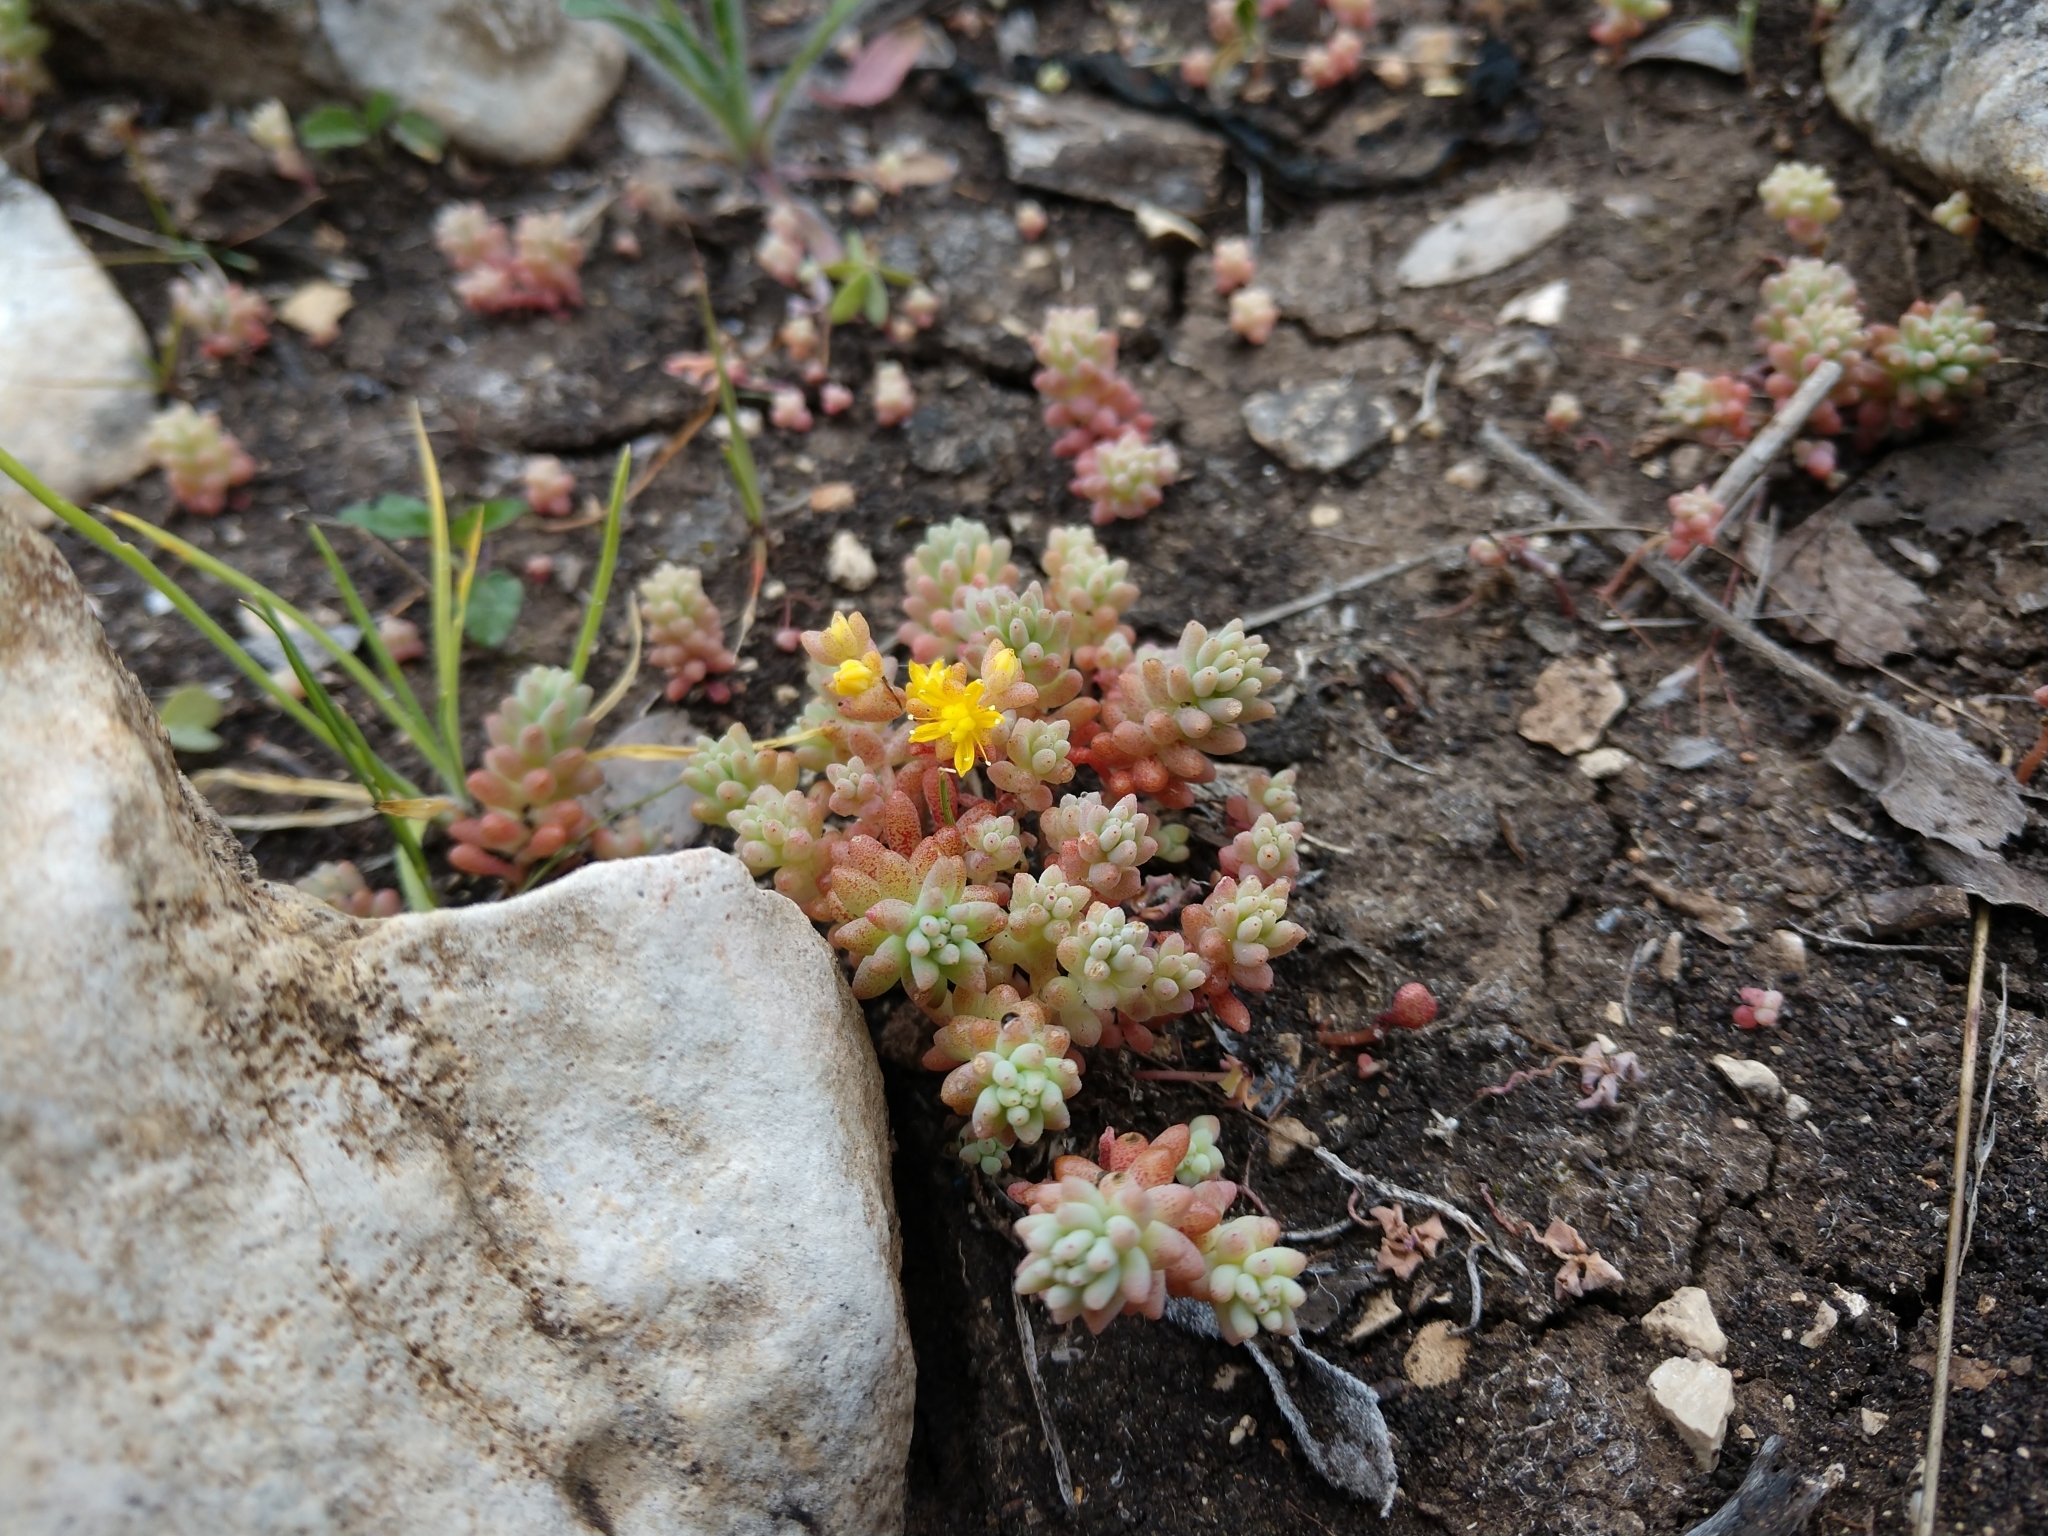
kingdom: Plantae
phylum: Tracheophyta
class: Magnoliopsida
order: Saxifragales
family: Crassulaceae
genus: Sedum
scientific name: Sedum nuttallii
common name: Yellow stonecrop
